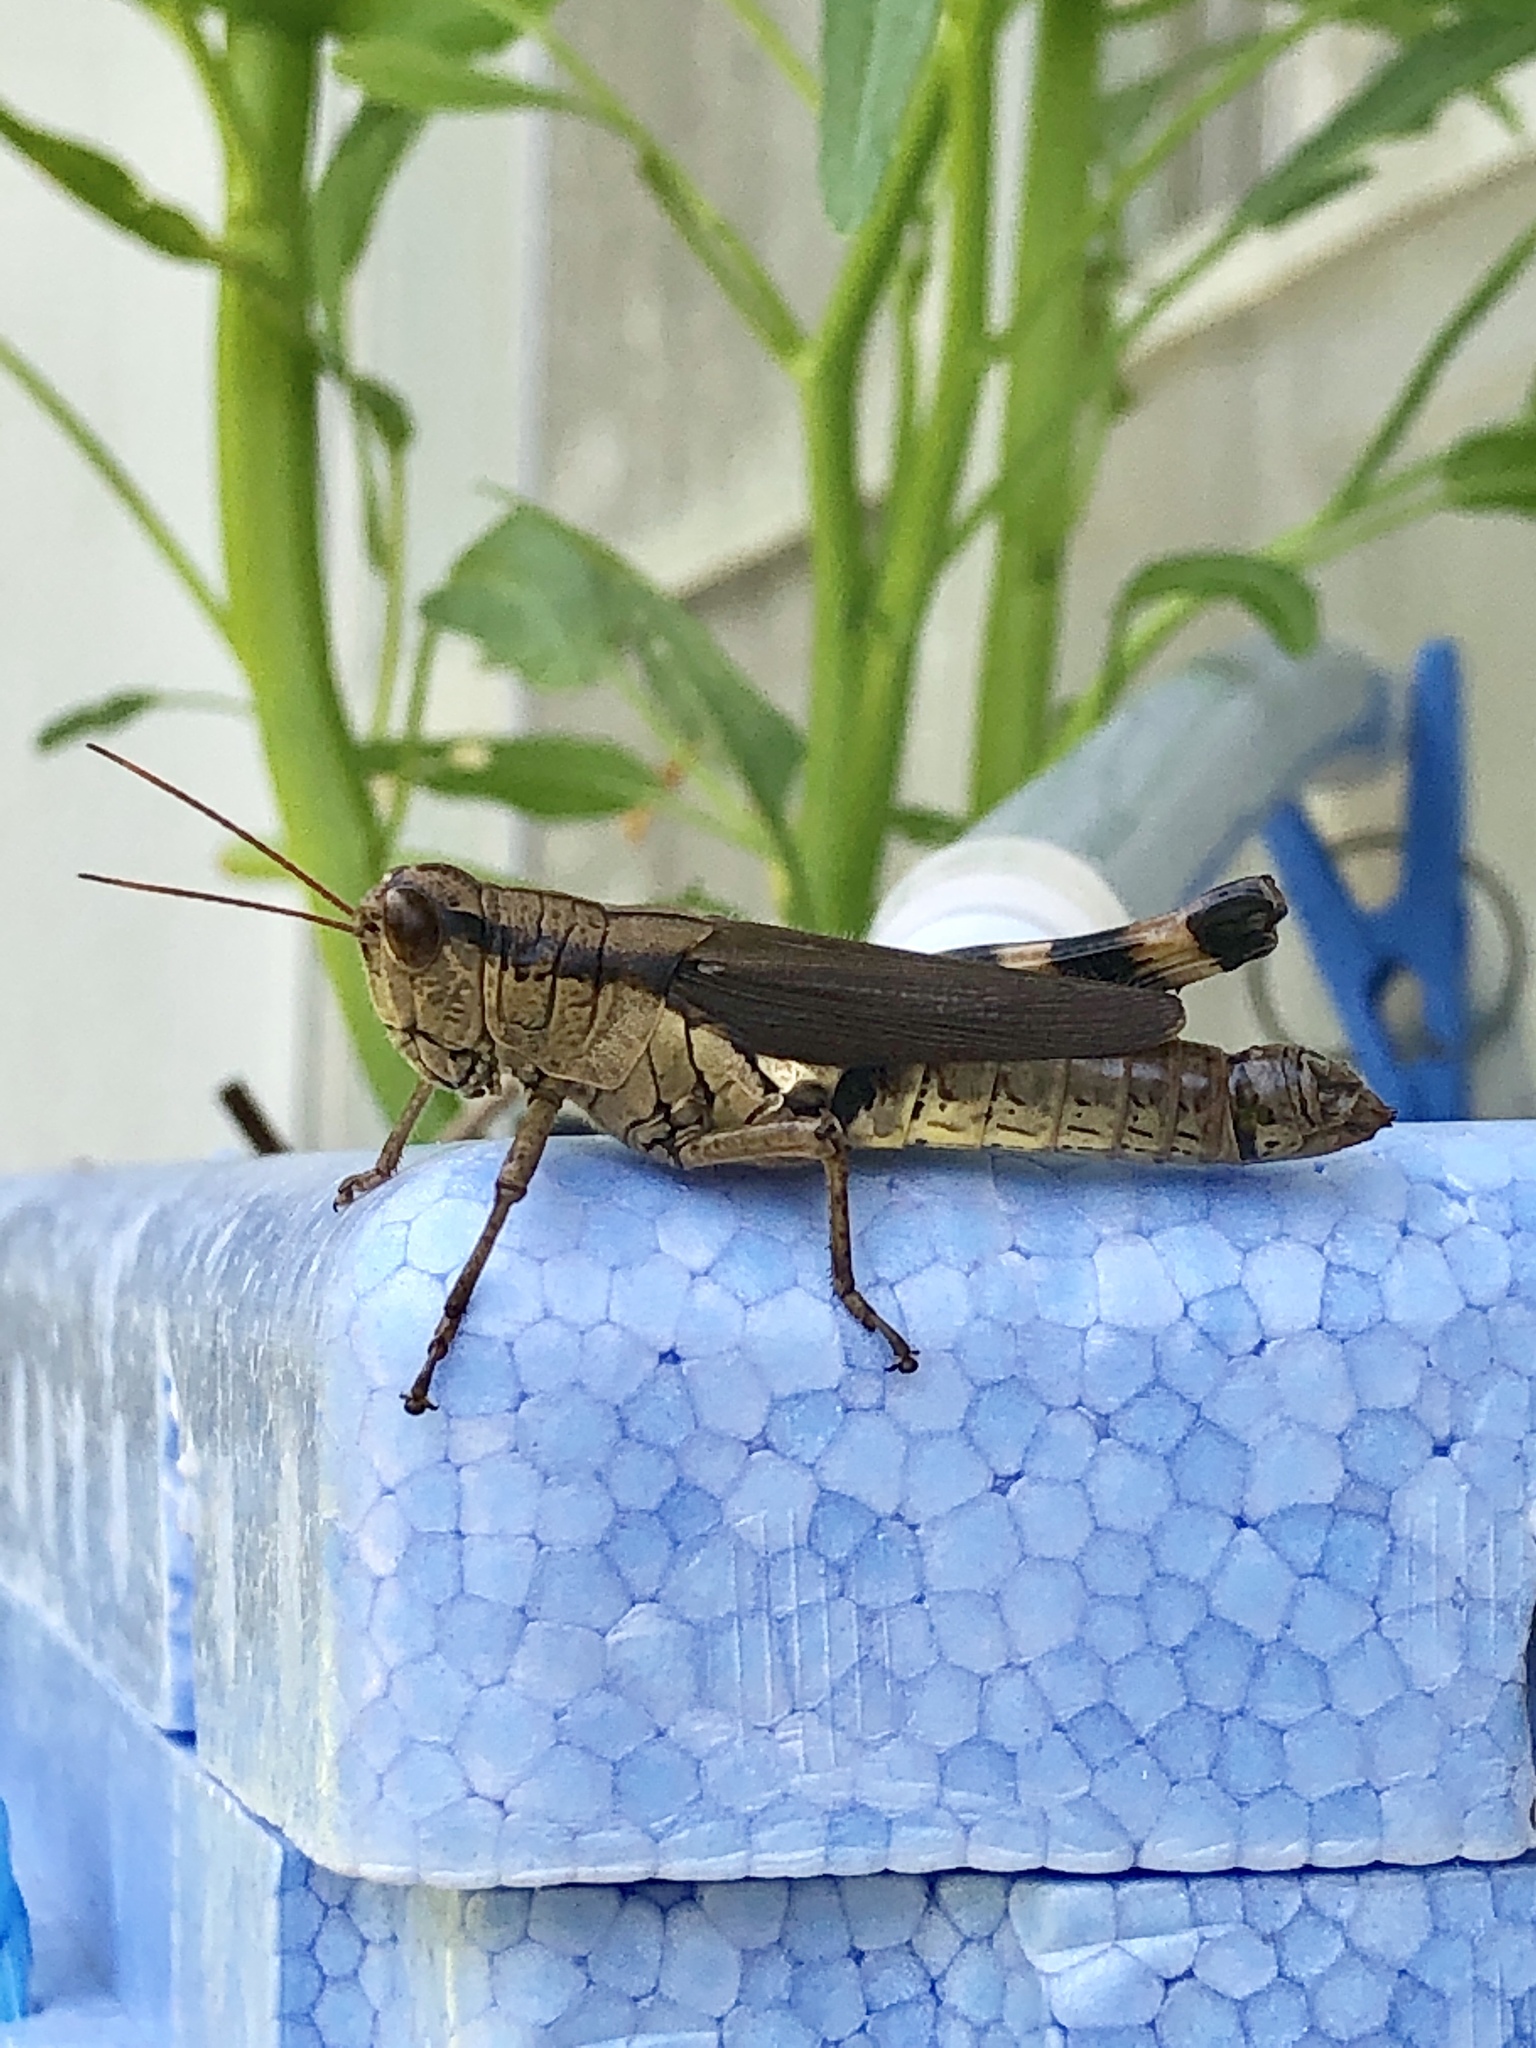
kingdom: Animalia
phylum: Arthropoda
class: Insecta
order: Orthoptera
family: Acrididae
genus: Fruhstorferiola
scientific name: Fruhstorferiola okinawaensis
